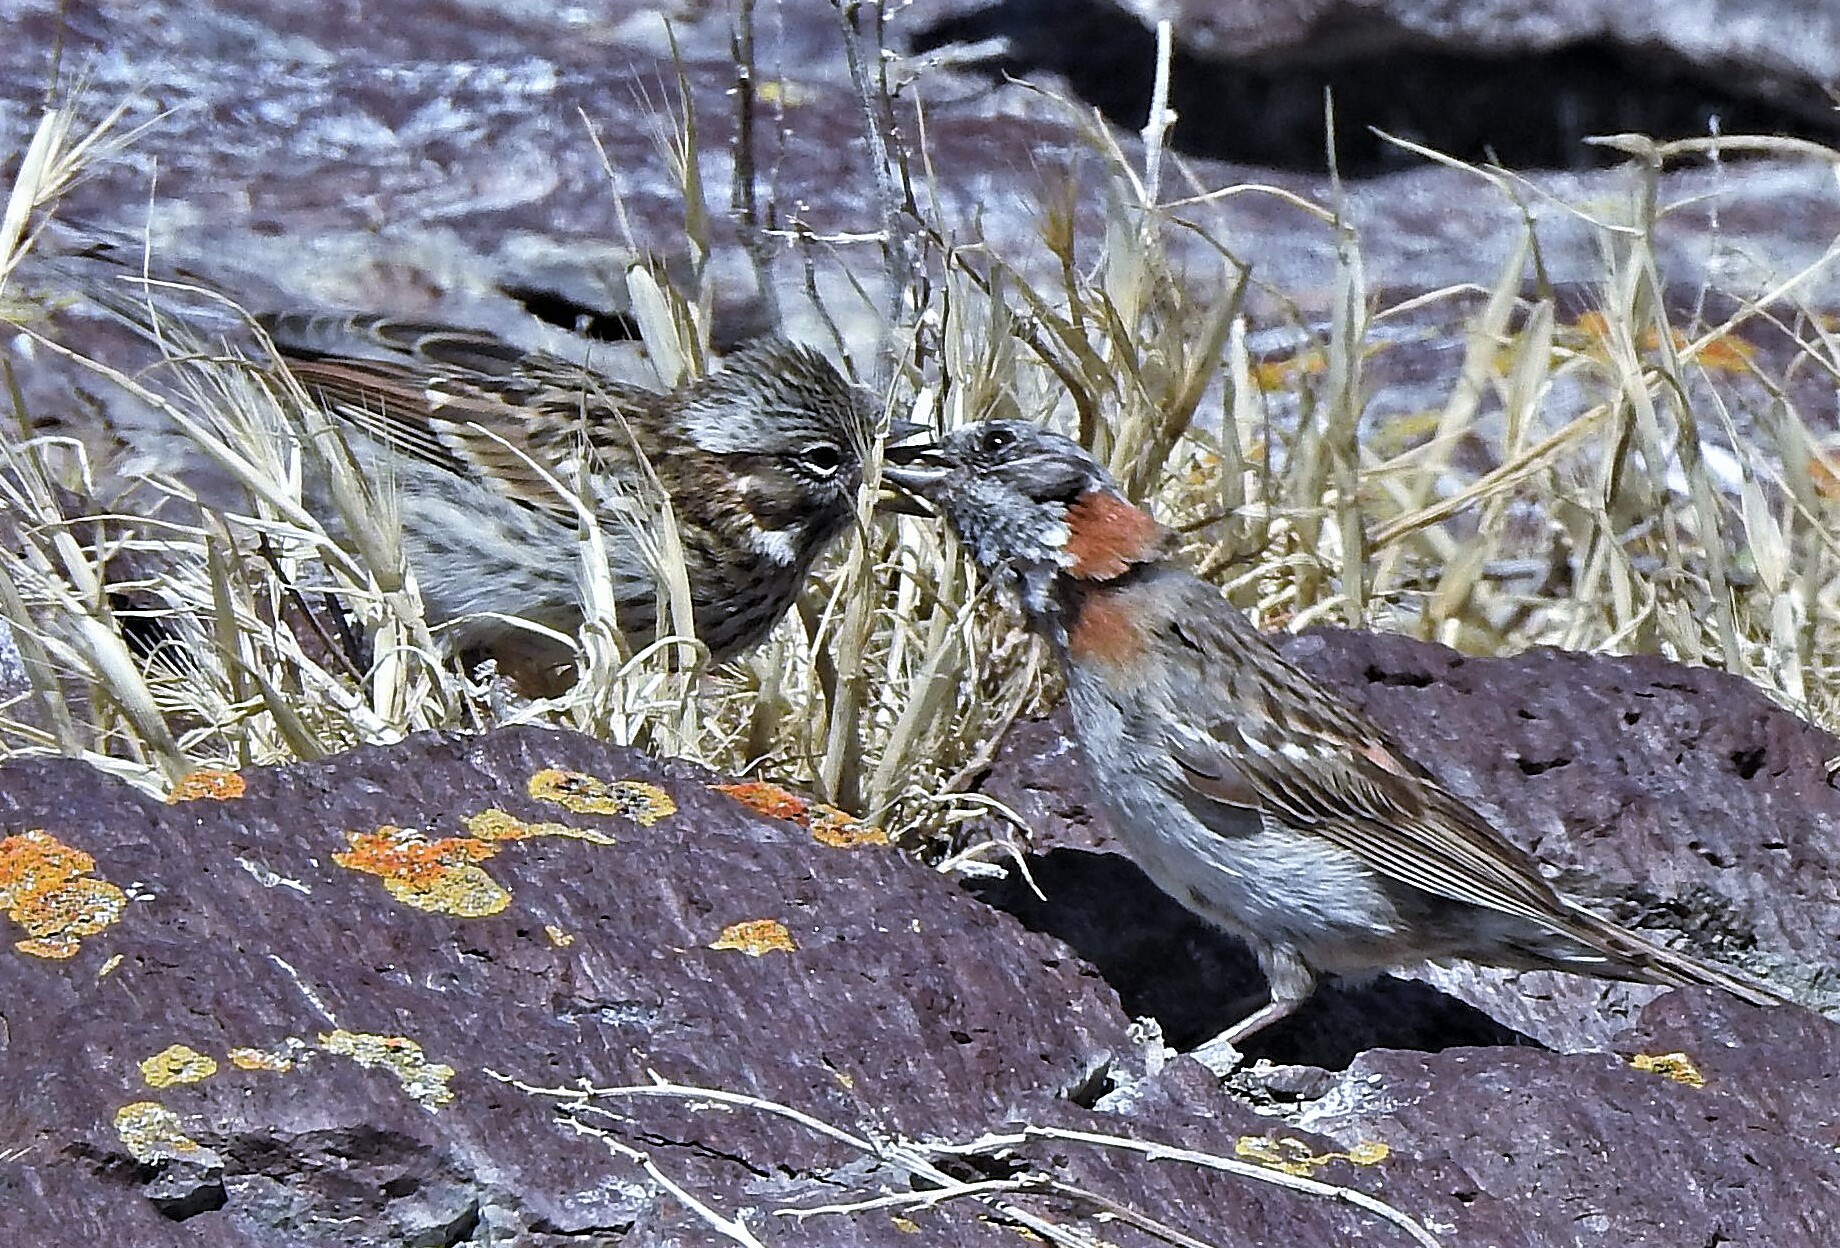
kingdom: Animalia
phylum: Chordata
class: Aves
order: Passeriformes
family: Passerellidae
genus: Zonotrichia
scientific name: Zonotrichia capensis
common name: Rufous-collared sparrow
